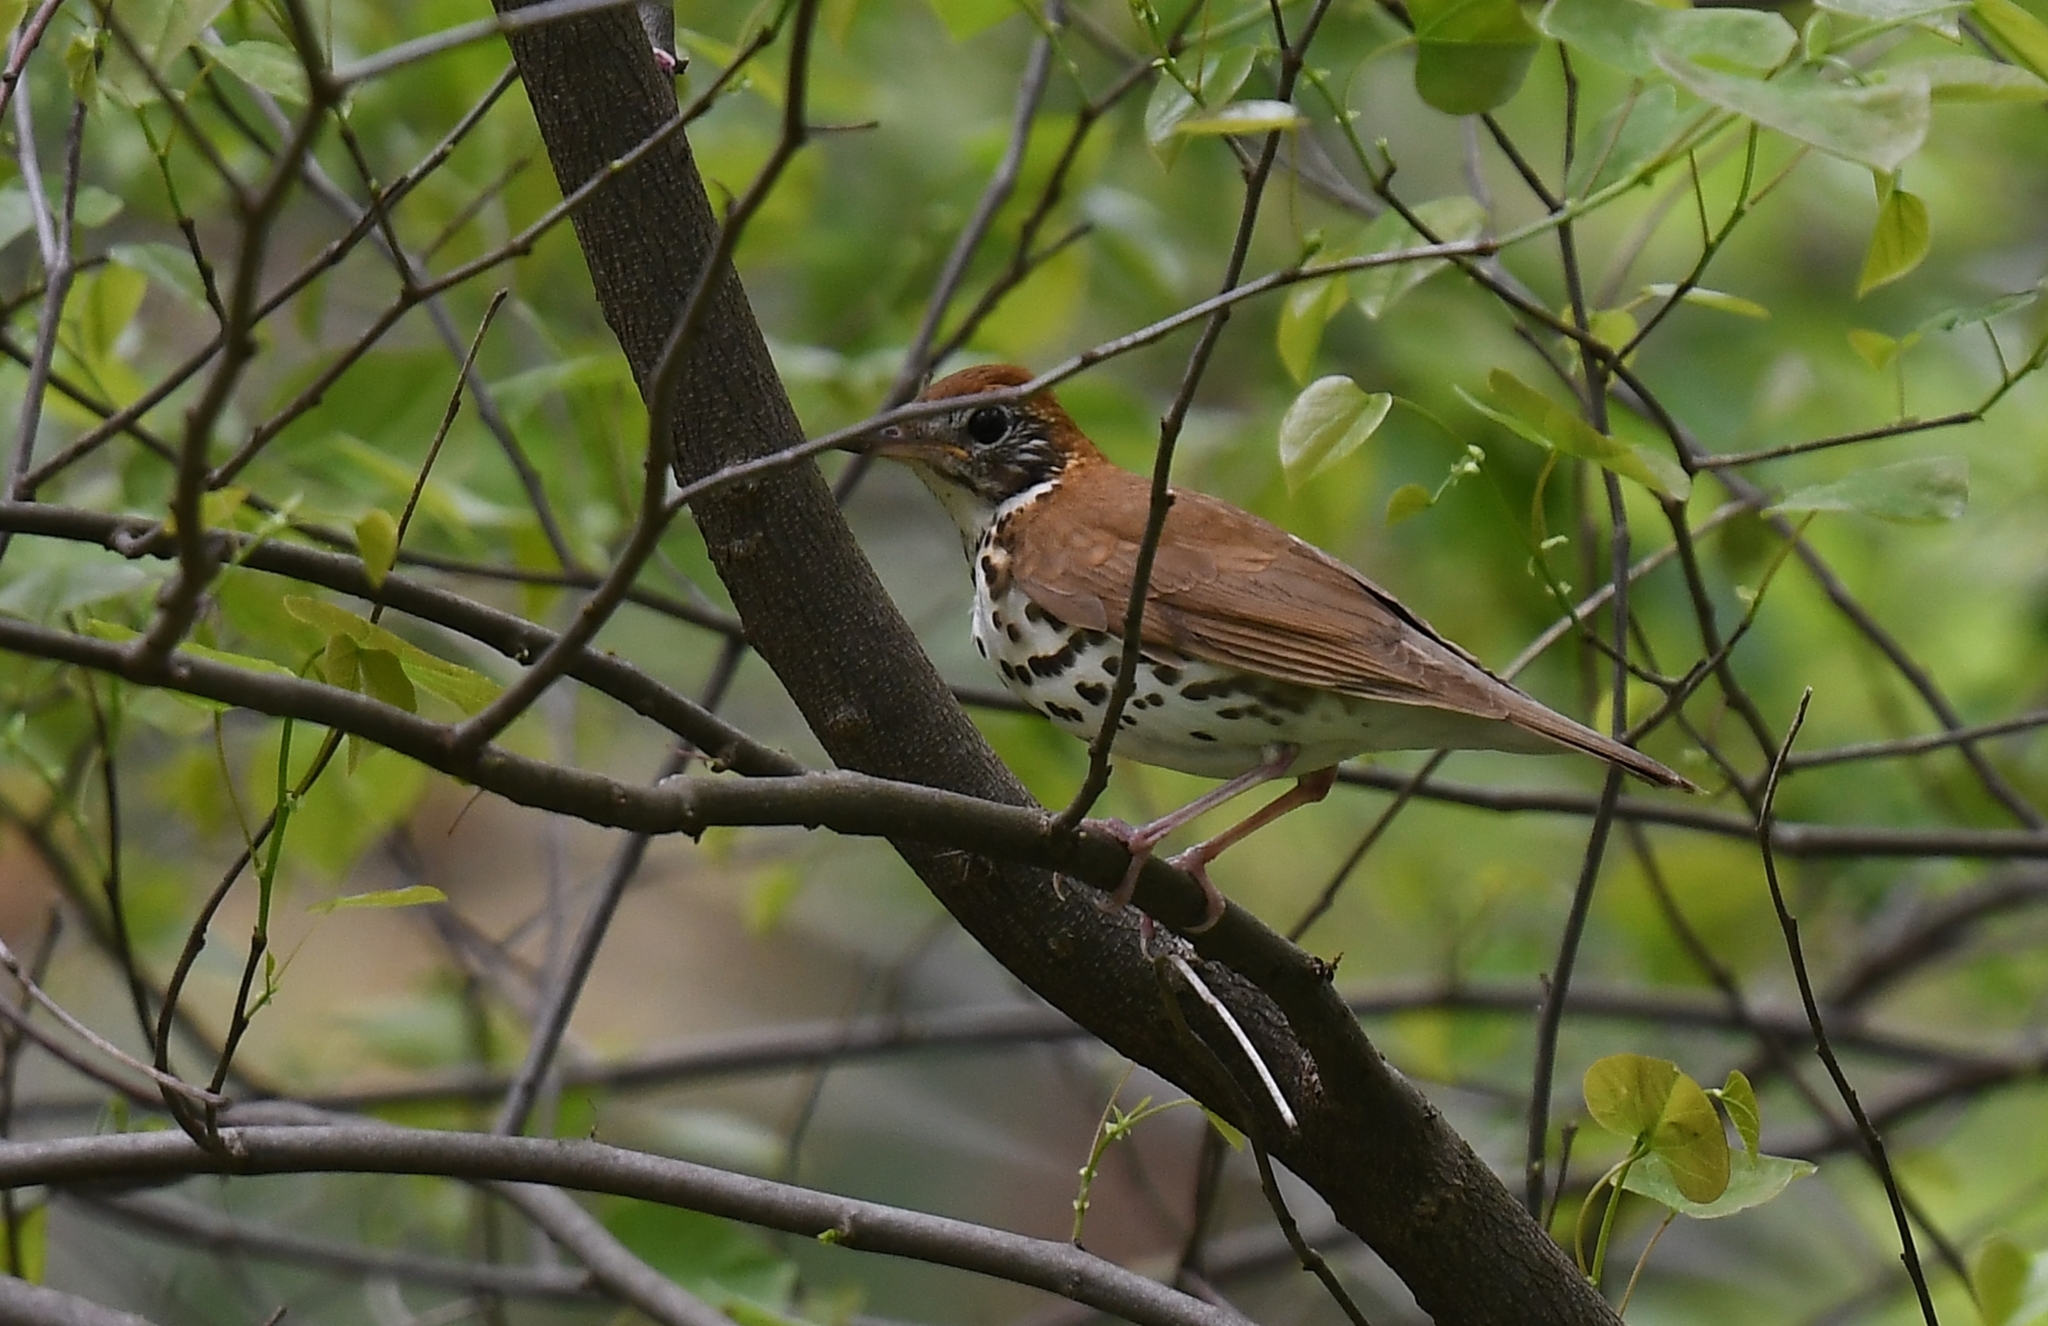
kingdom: Animalia
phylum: Chordata
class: Aves
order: Passeriformes
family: Turdidae
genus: Hylocichla
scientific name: Hylocichla mustelina
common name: Wood thrush
